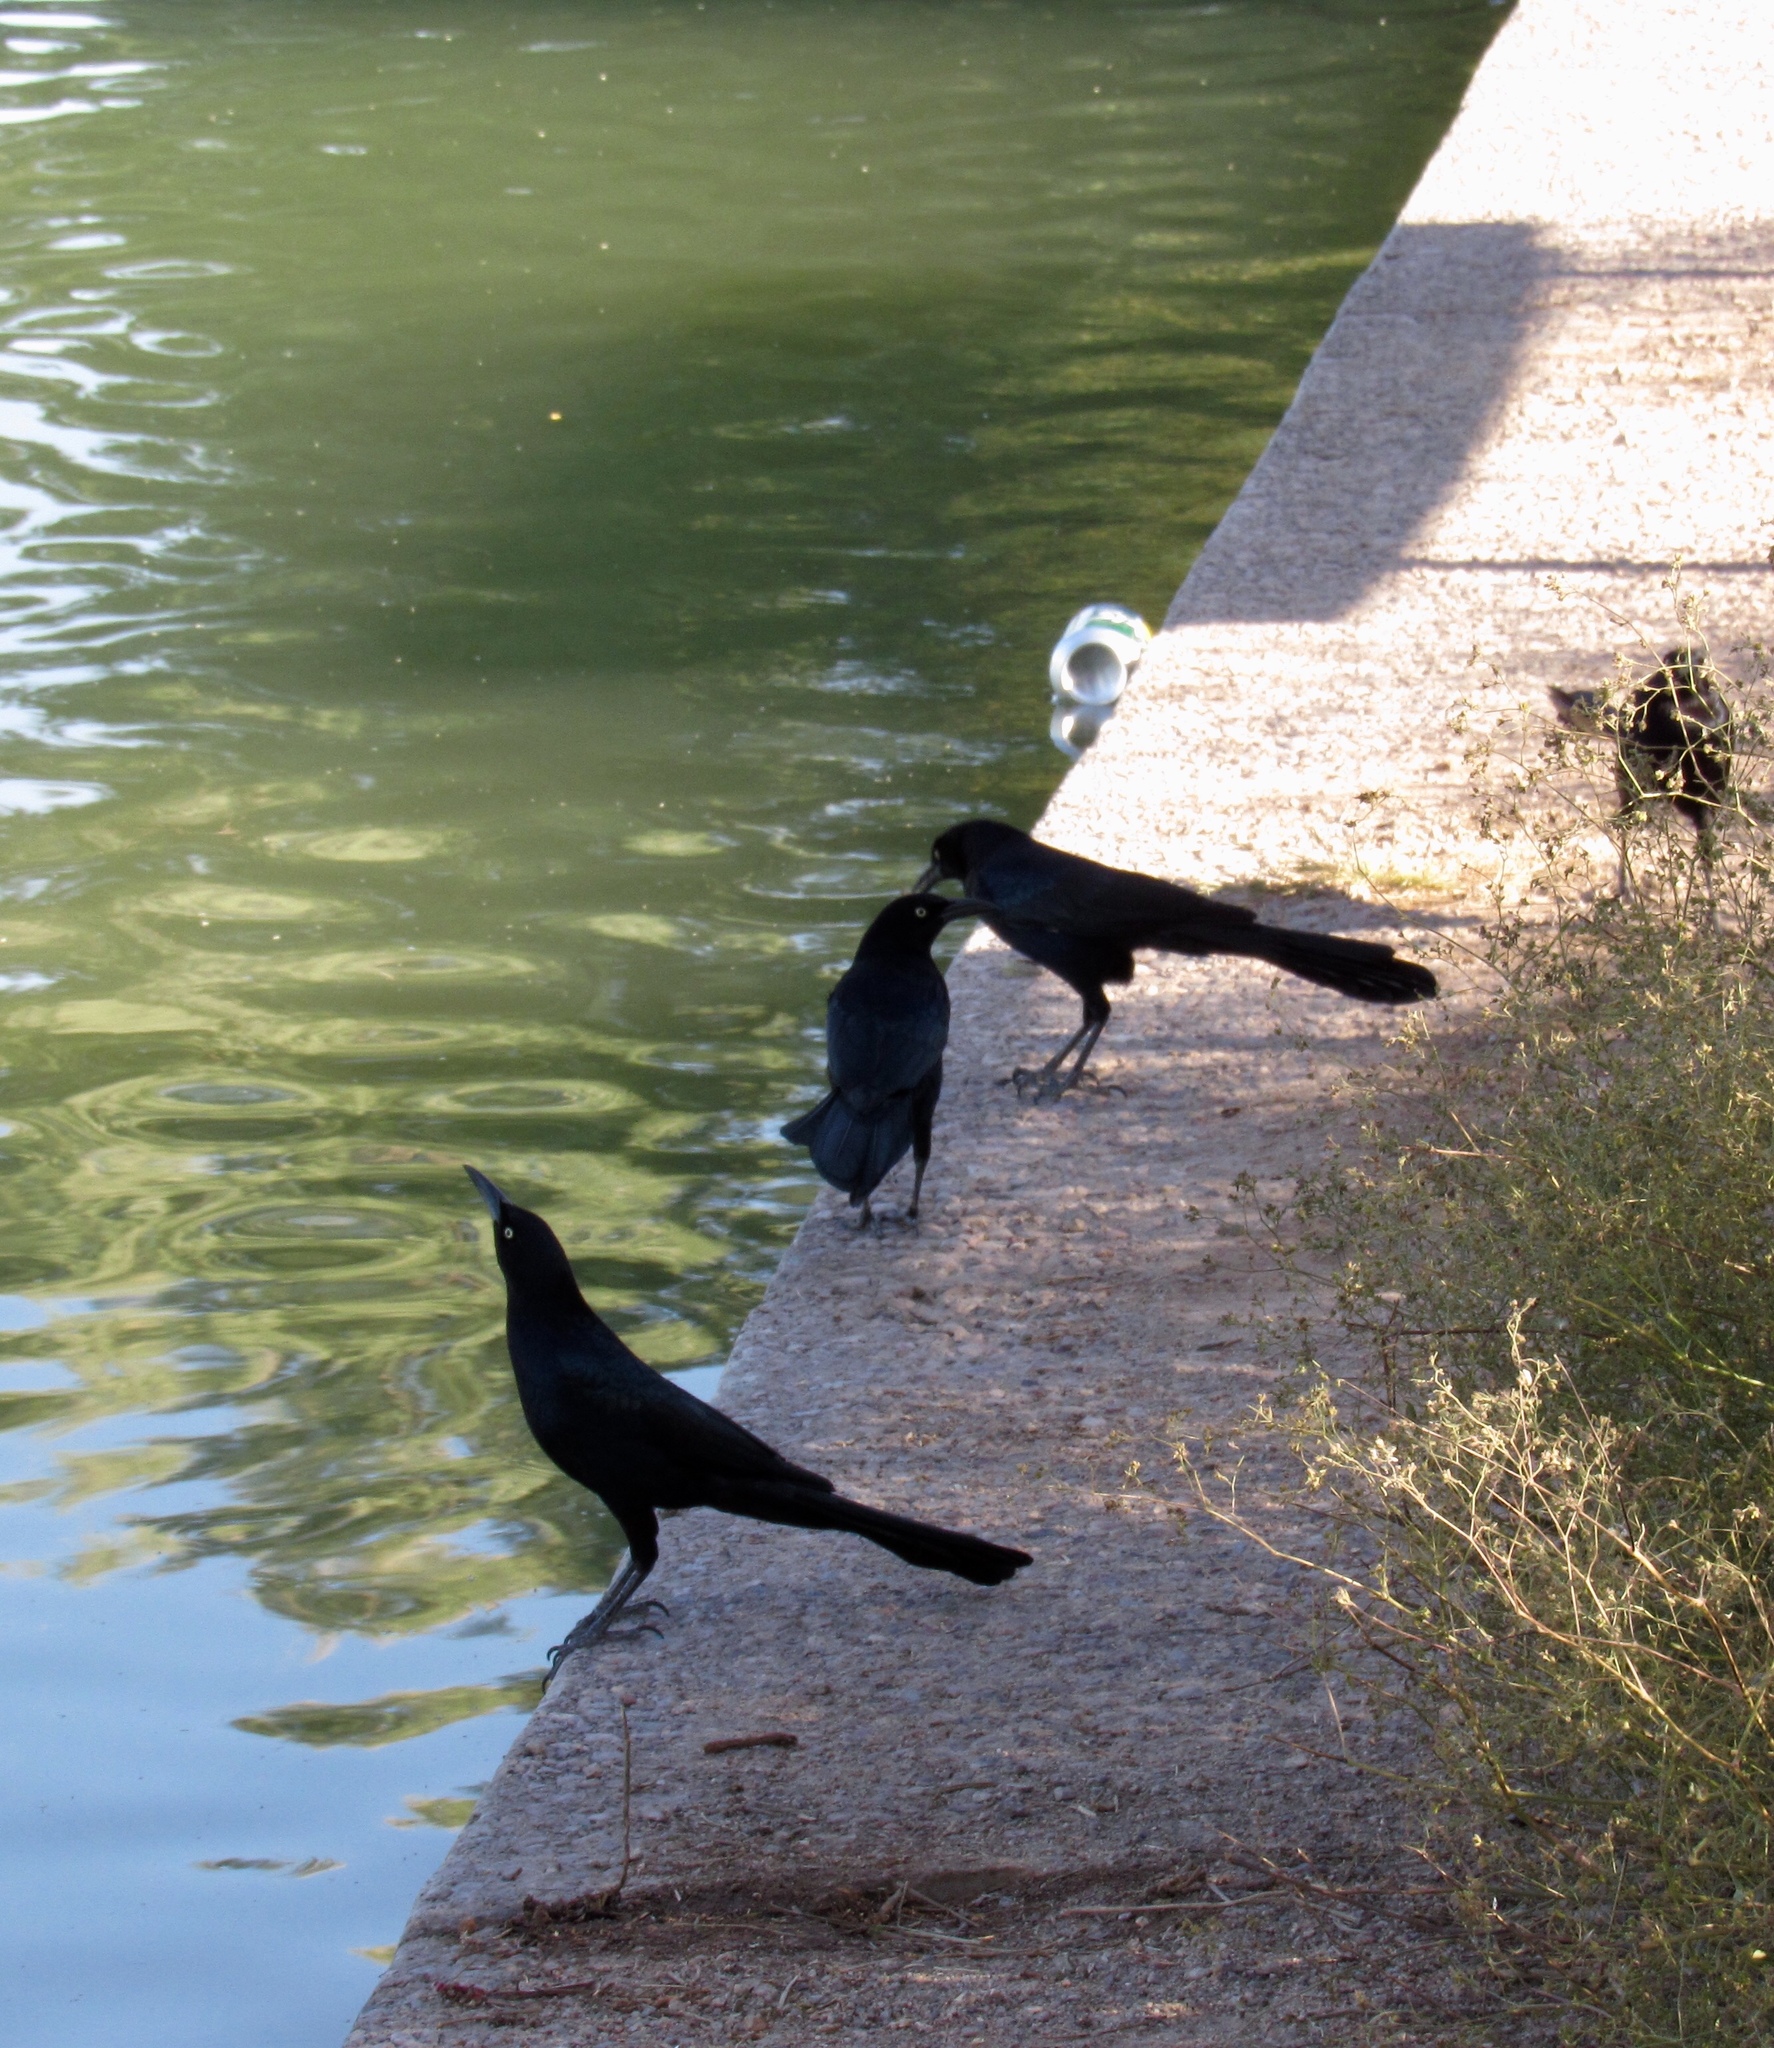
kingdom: Animalia
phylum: Chordata
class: Aves
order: Passeriformes
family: Icteridae
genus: Quiscalus
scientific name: Quiscalus mexicanus
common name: Great-tailed grackle
